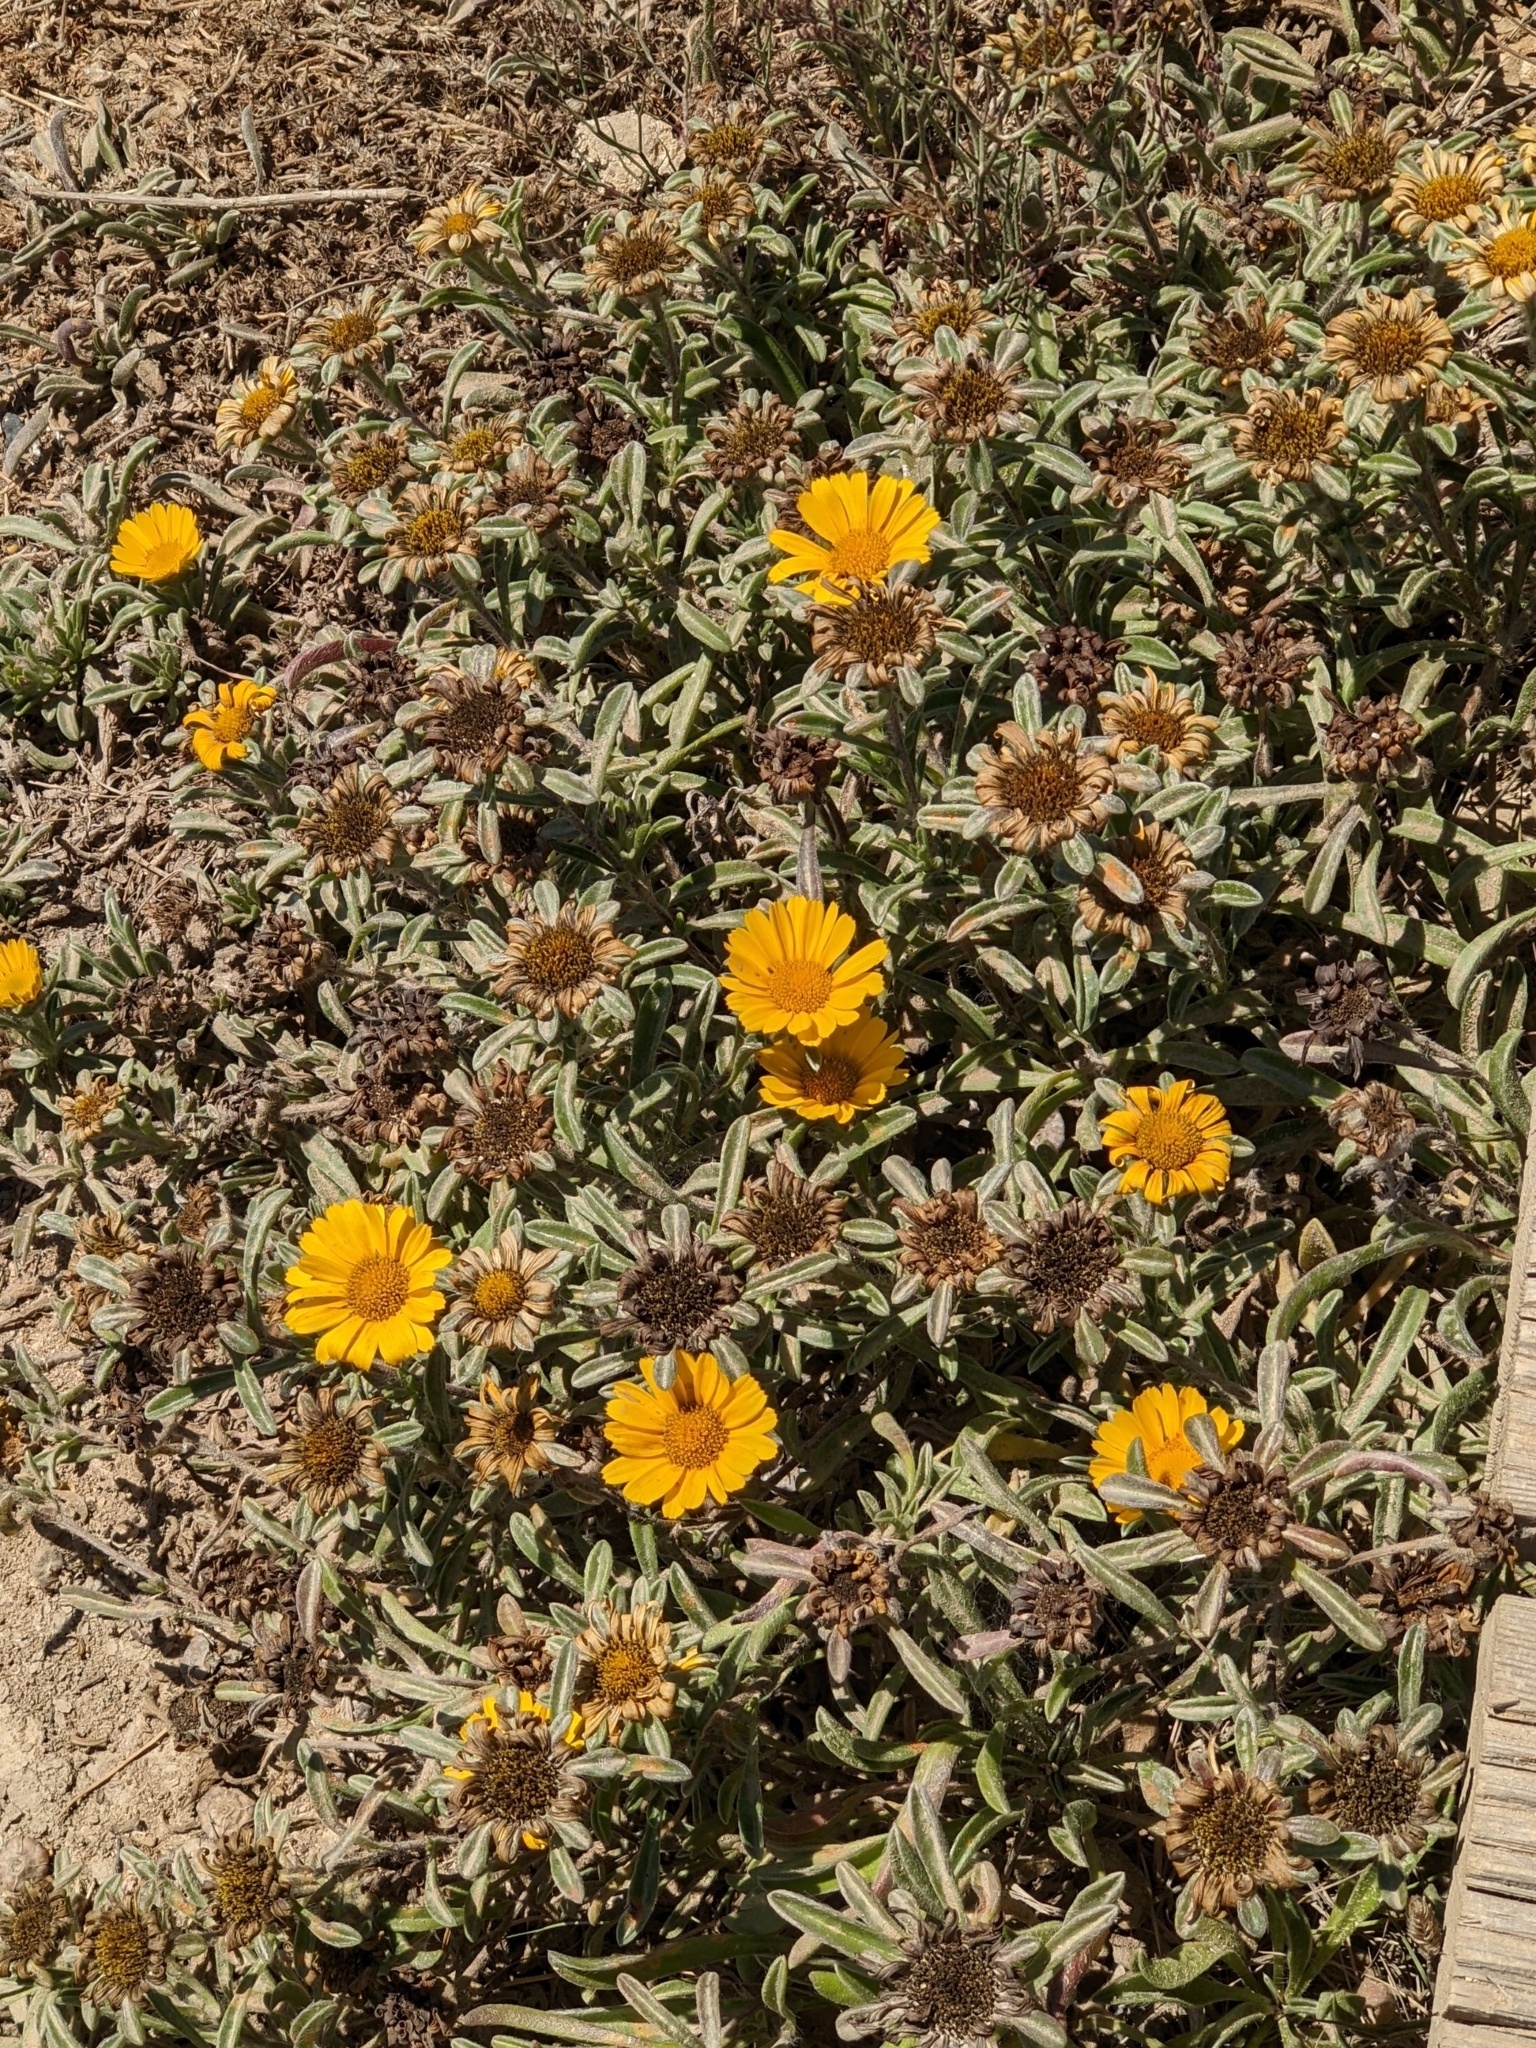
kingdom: Plantae
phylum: Tracheophyta
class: Magnoliopsida
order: Asterales
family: Asteraceae
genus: Pallenis
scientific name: Pallenis maritima
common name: Golden coin daisy
